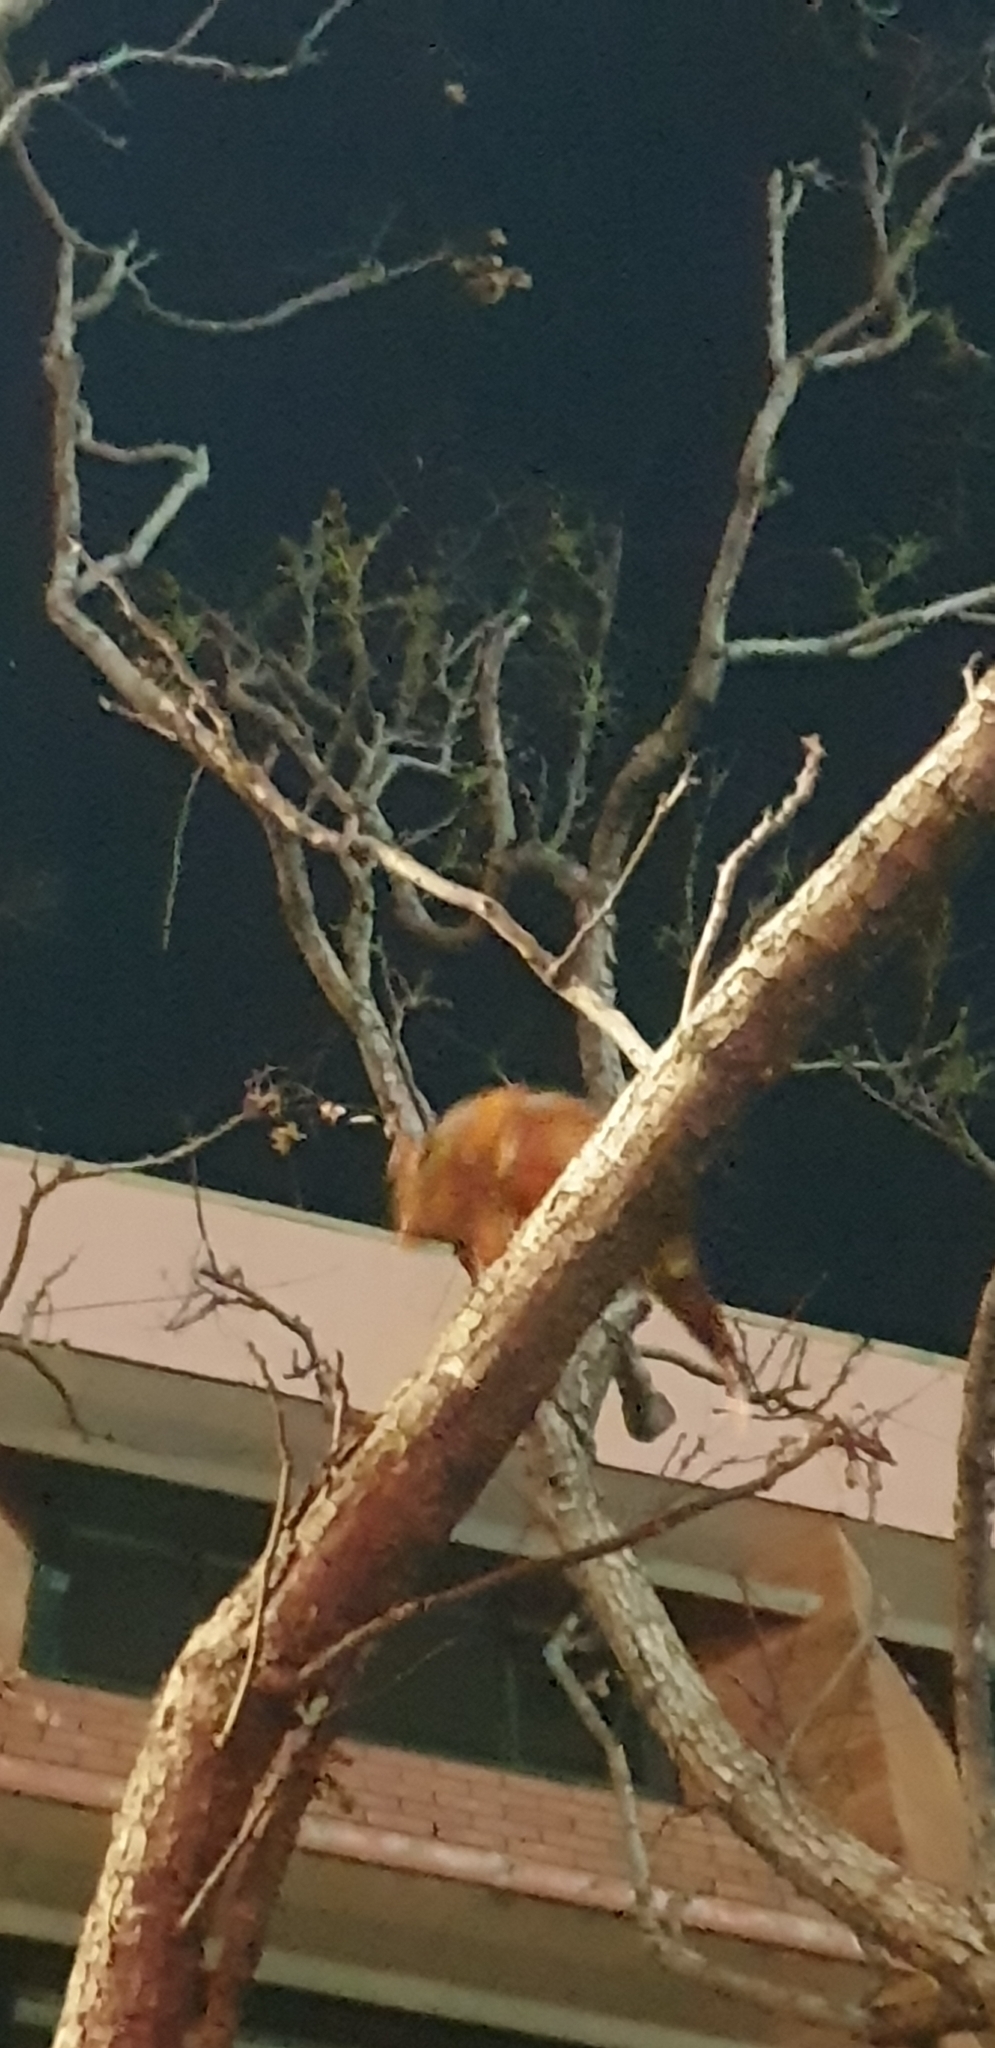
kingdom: Animalia
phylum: Chordata
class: Mammalia
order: Diprotodontia
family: Pseudocheiridae
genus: Pseudocheirus
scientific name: Pseudocheirus peregrinus
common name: Common ringtail possum
